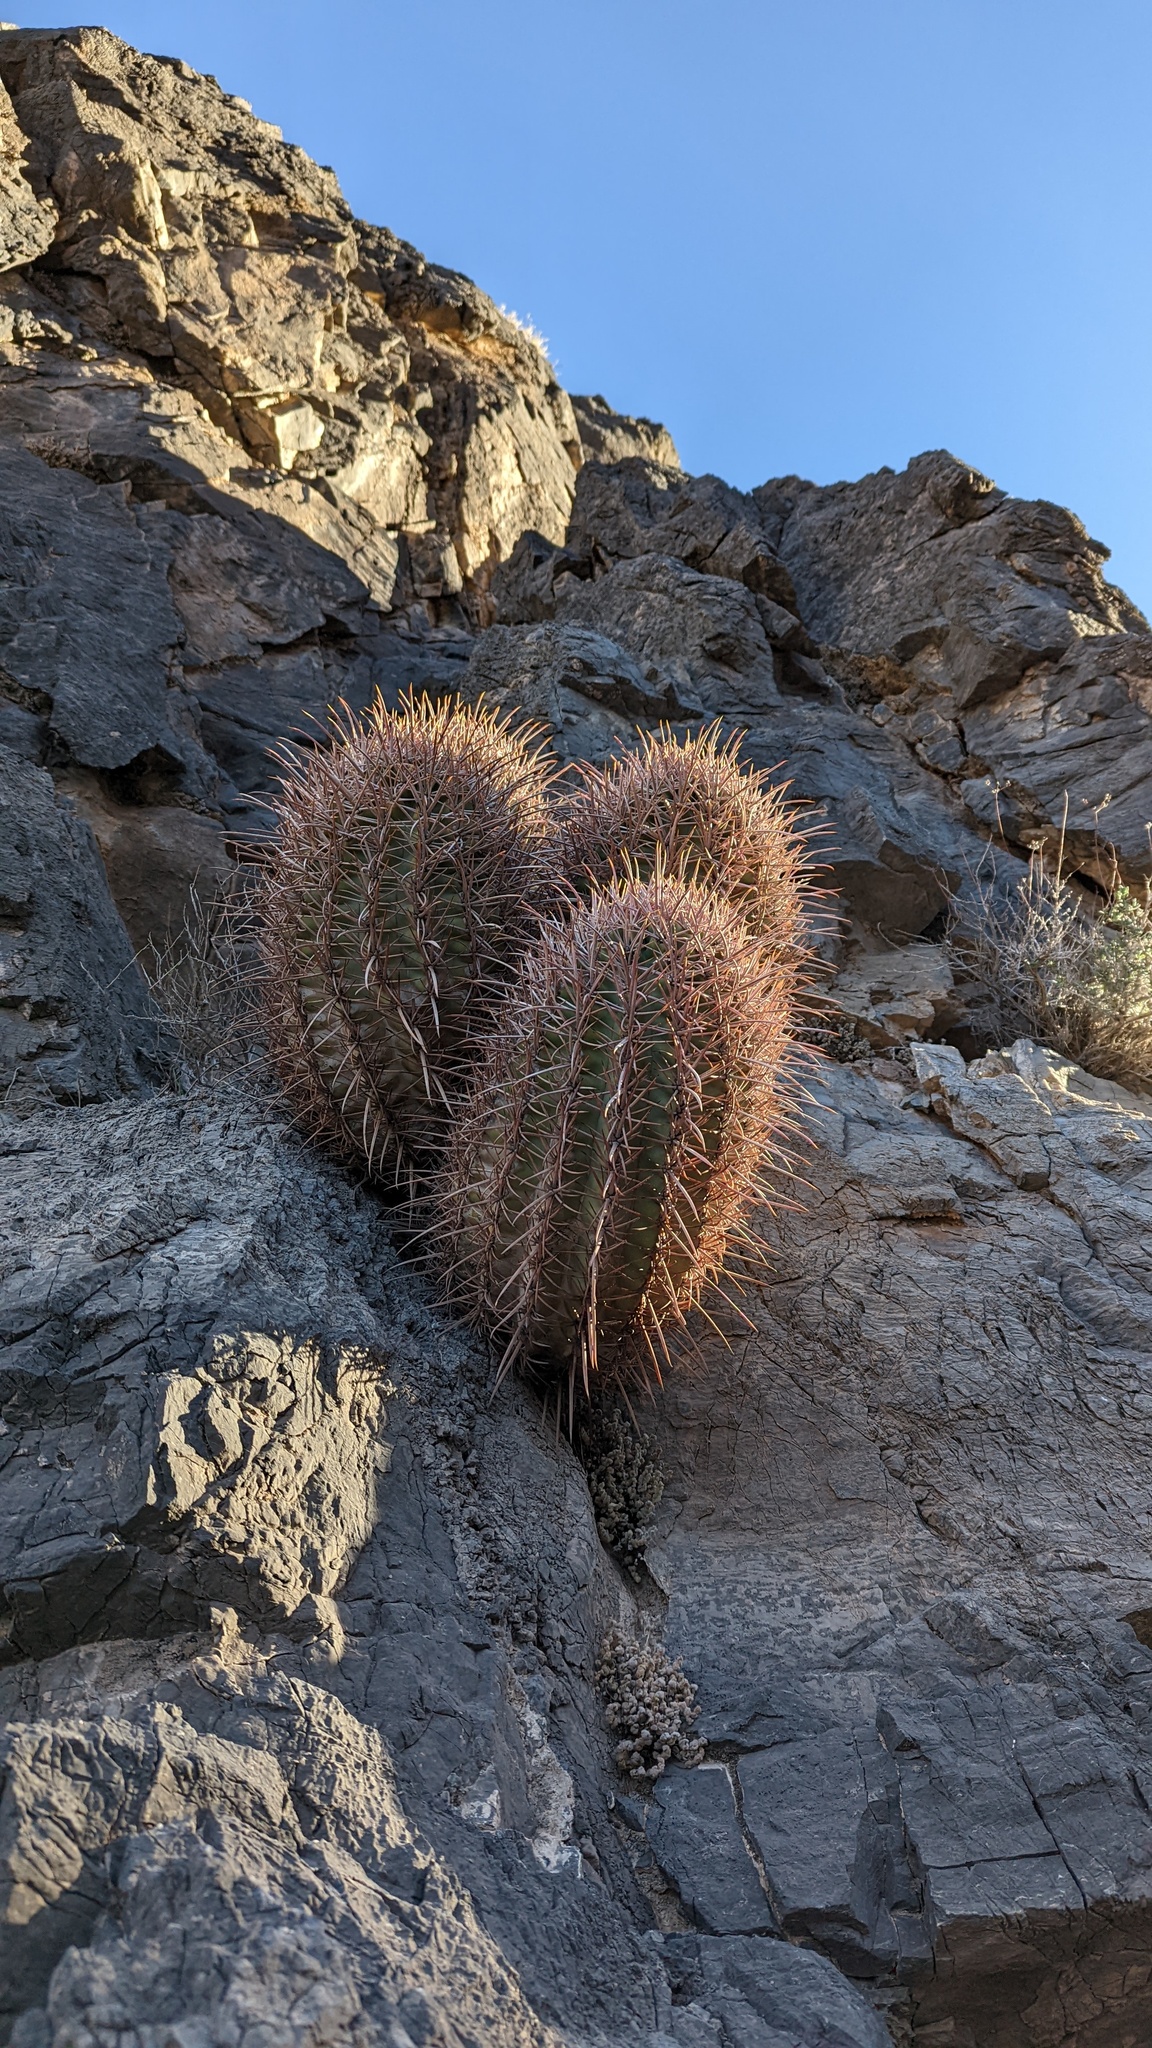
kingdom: Plantae
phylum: Tracheophyta
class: Magnoliopsida
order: Caryophyllales
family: Cactaceae
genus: Echinocactus
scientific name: Echinocactus polycephalus
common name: Cottontop cactus
